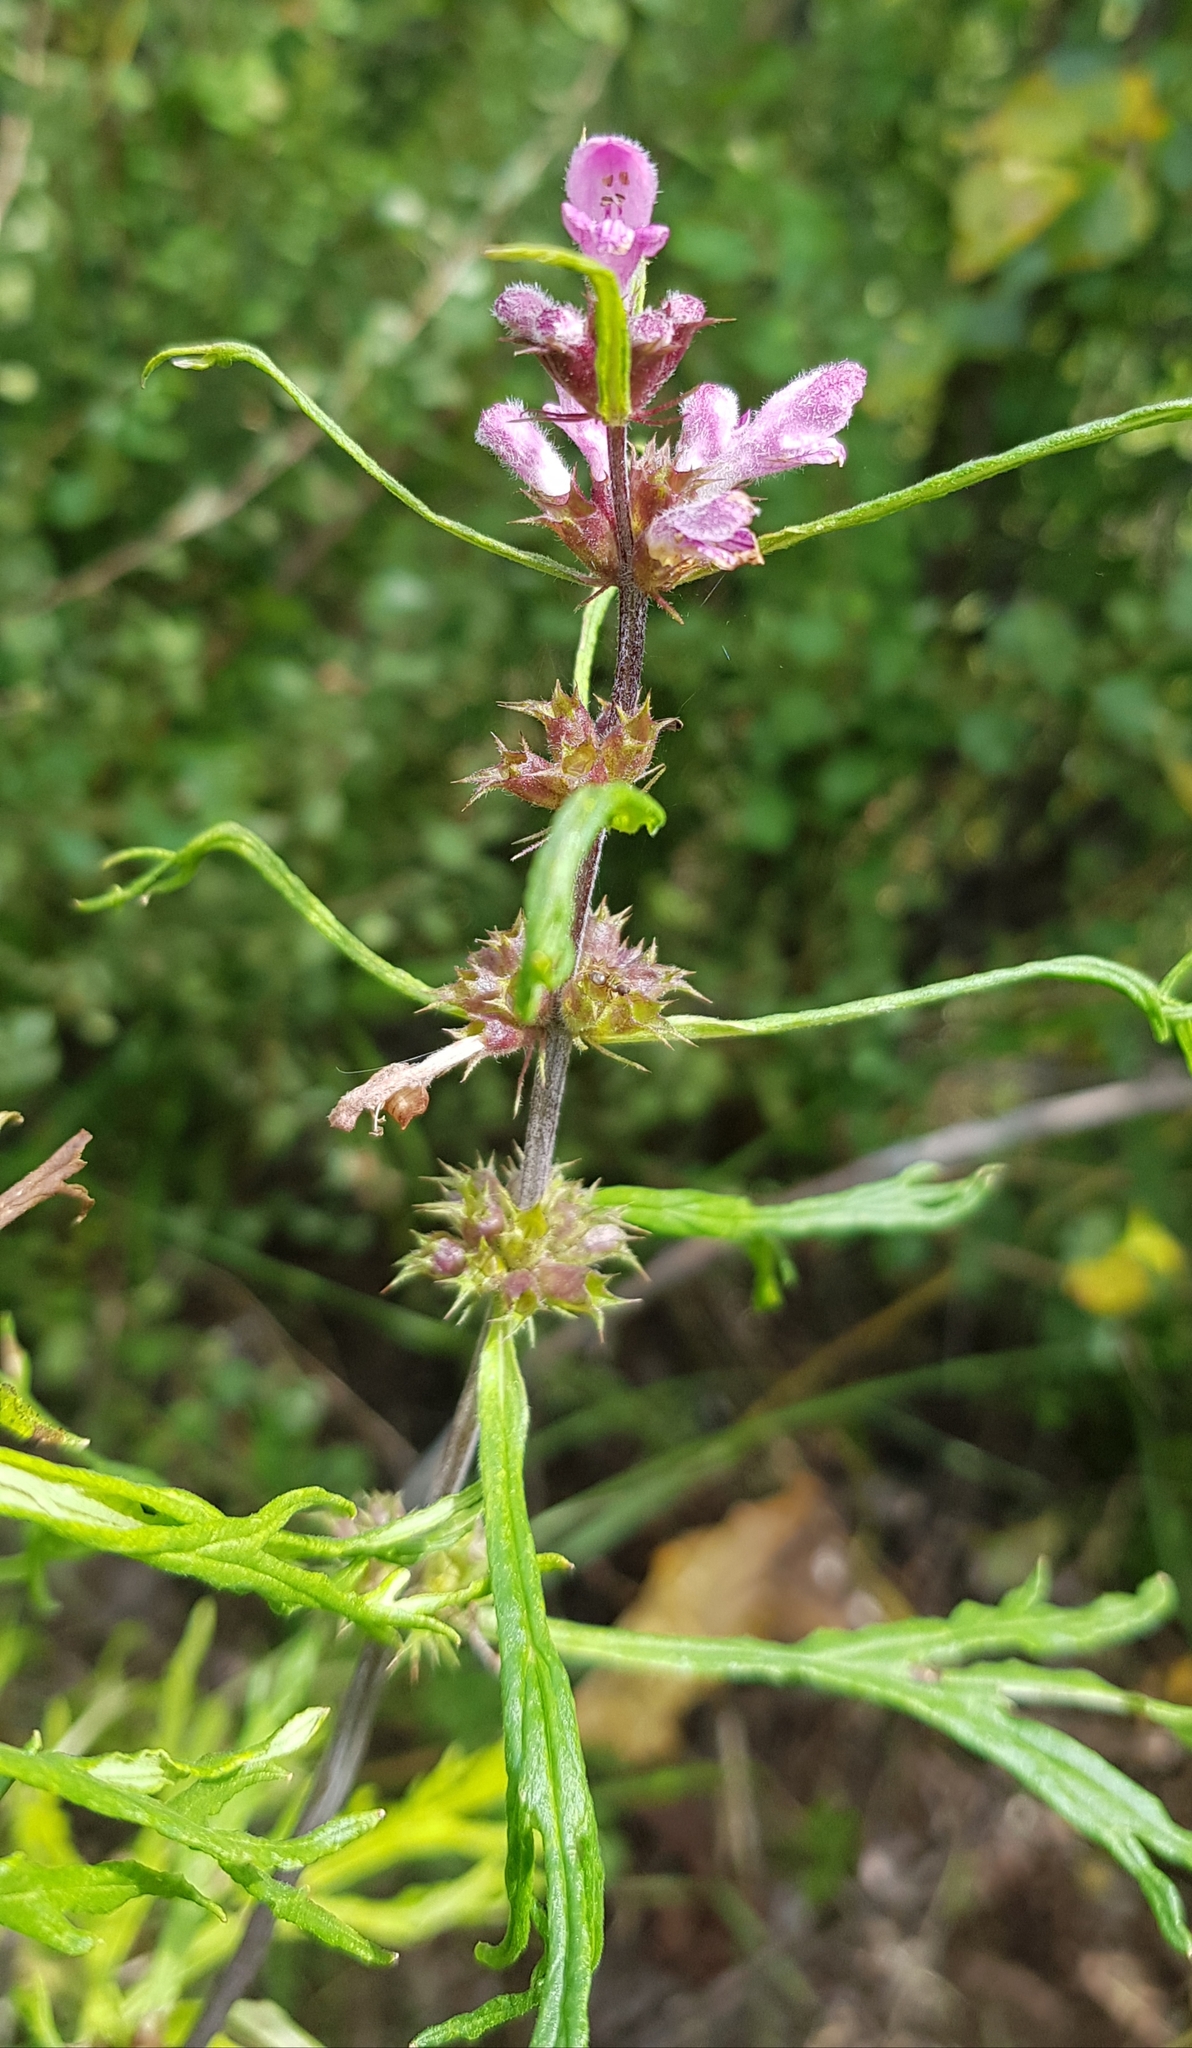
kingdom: Plantae
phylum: Tracheophyta
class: Magnoliopsida
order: Lamiales
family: Lamiaceae
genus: Leonurus
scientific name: Leonurus sibiricus
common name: Honeyweed
